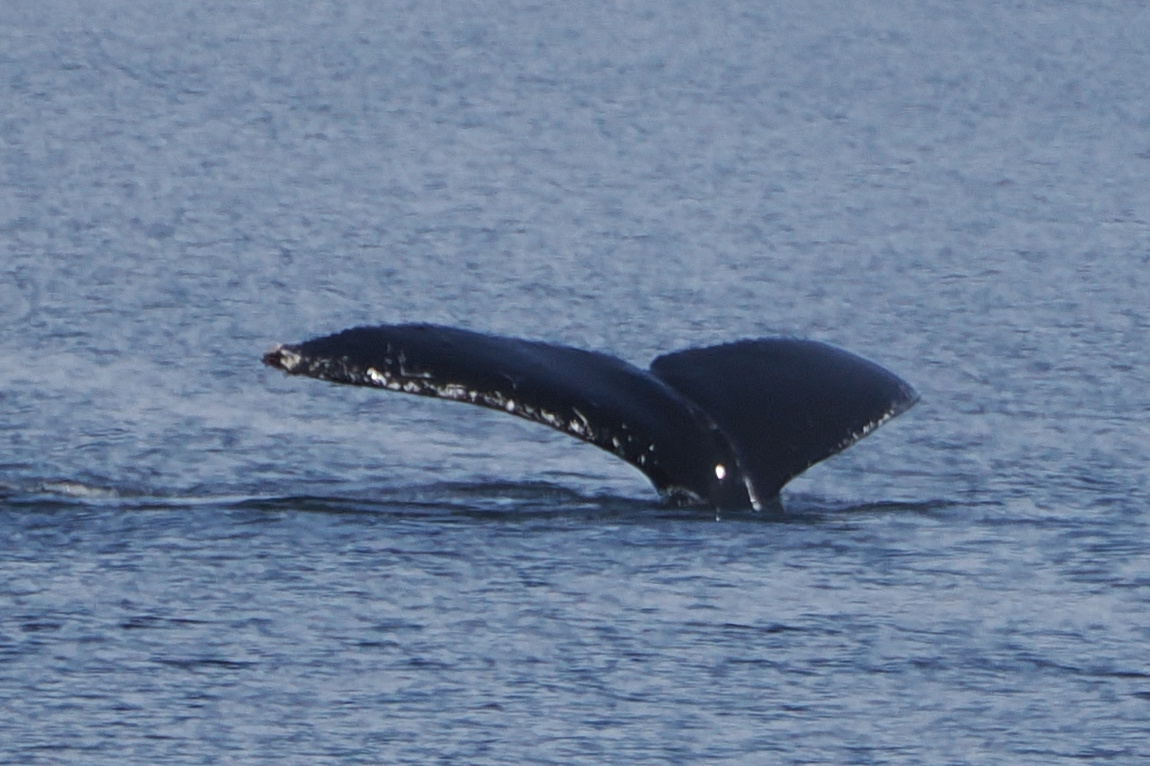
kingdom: Animalia
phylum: Chordata
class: Mammalia
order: Cetacea
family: Balaenopteridae
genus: Megaptera
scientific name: Megaptera novaeangliae
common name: Humpback whale
